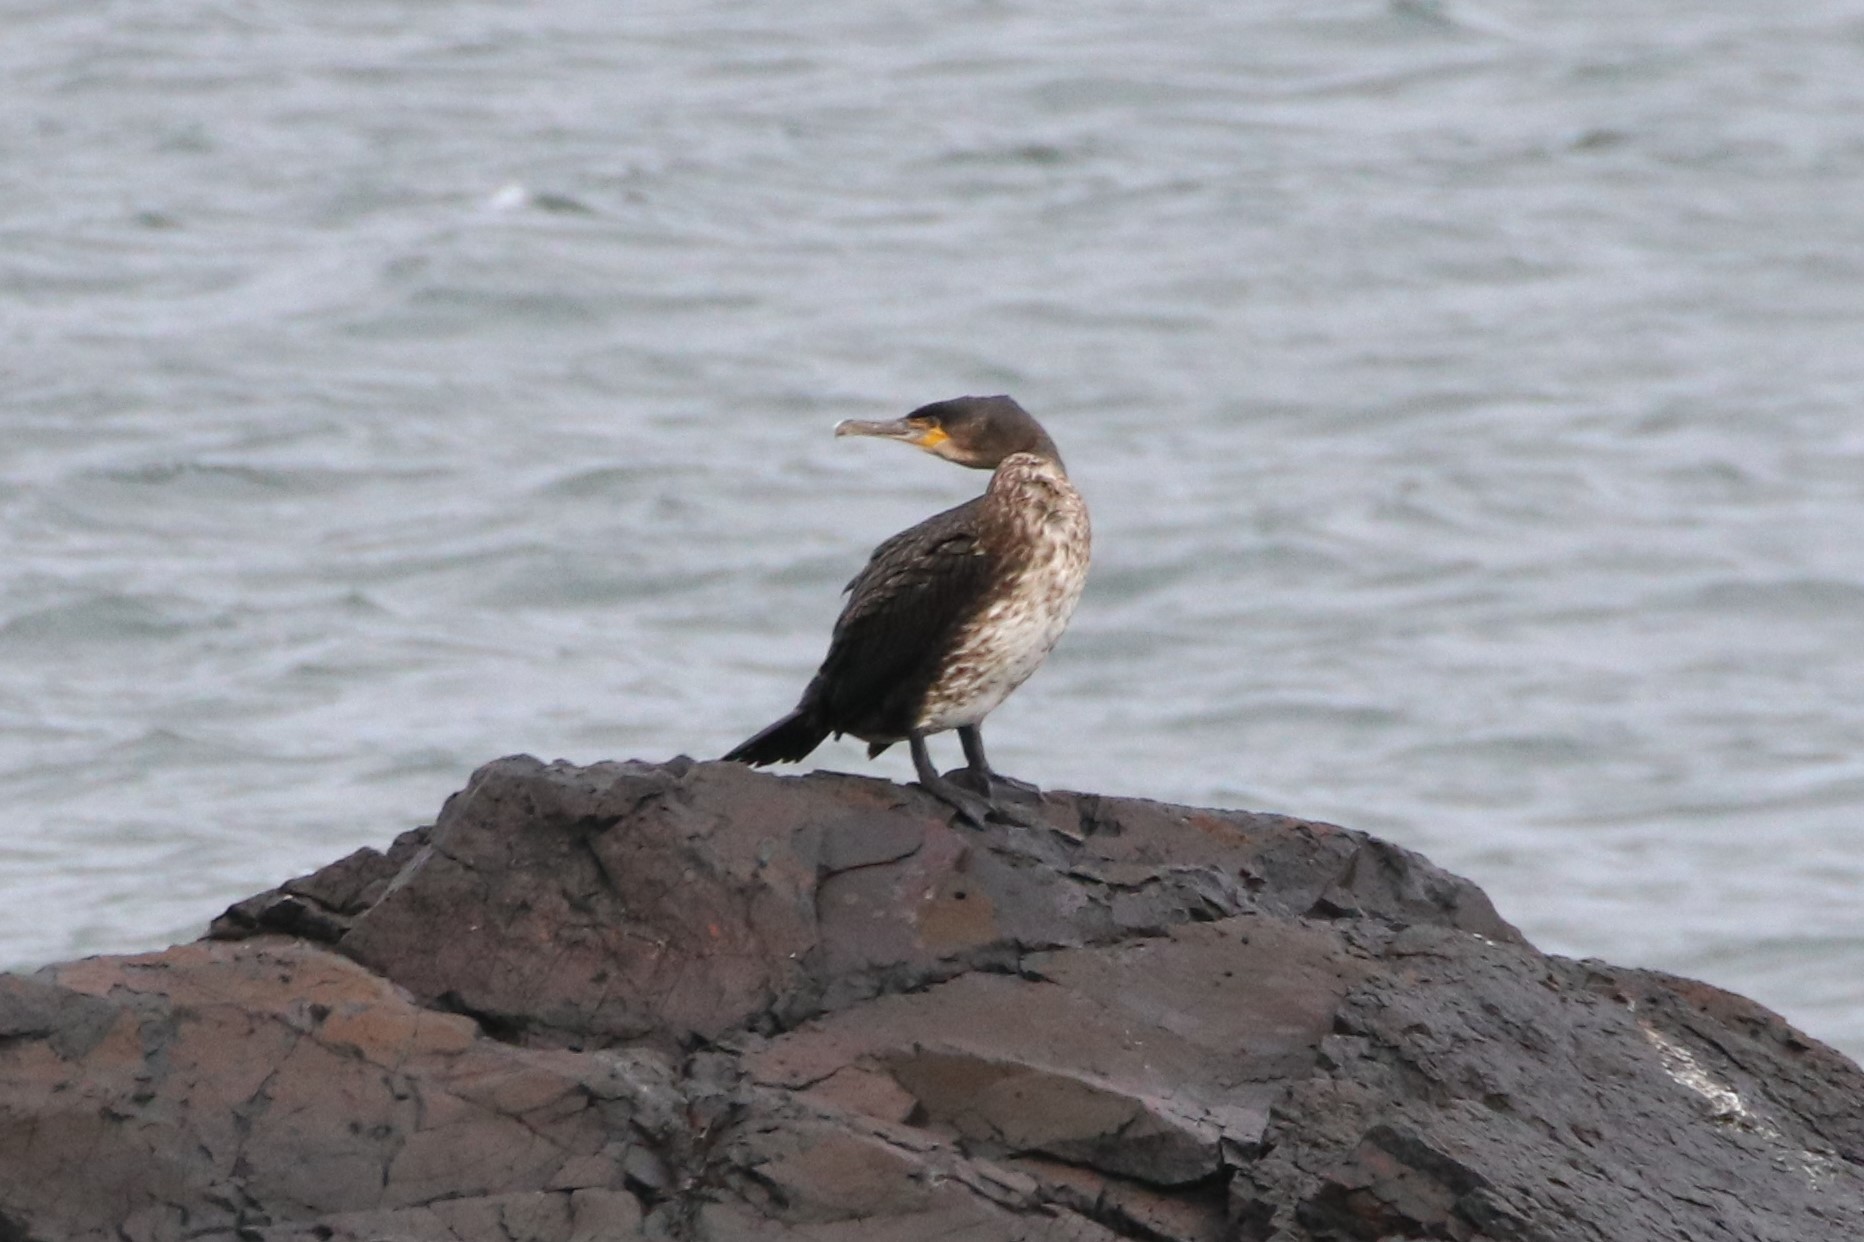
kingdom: Animalia
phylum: Chordata
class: Aves
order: Suliformes
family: Phalacrocoracidae
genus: Phalacrocorax
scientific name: Phalacrocorax carbo
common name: Great cormorant
